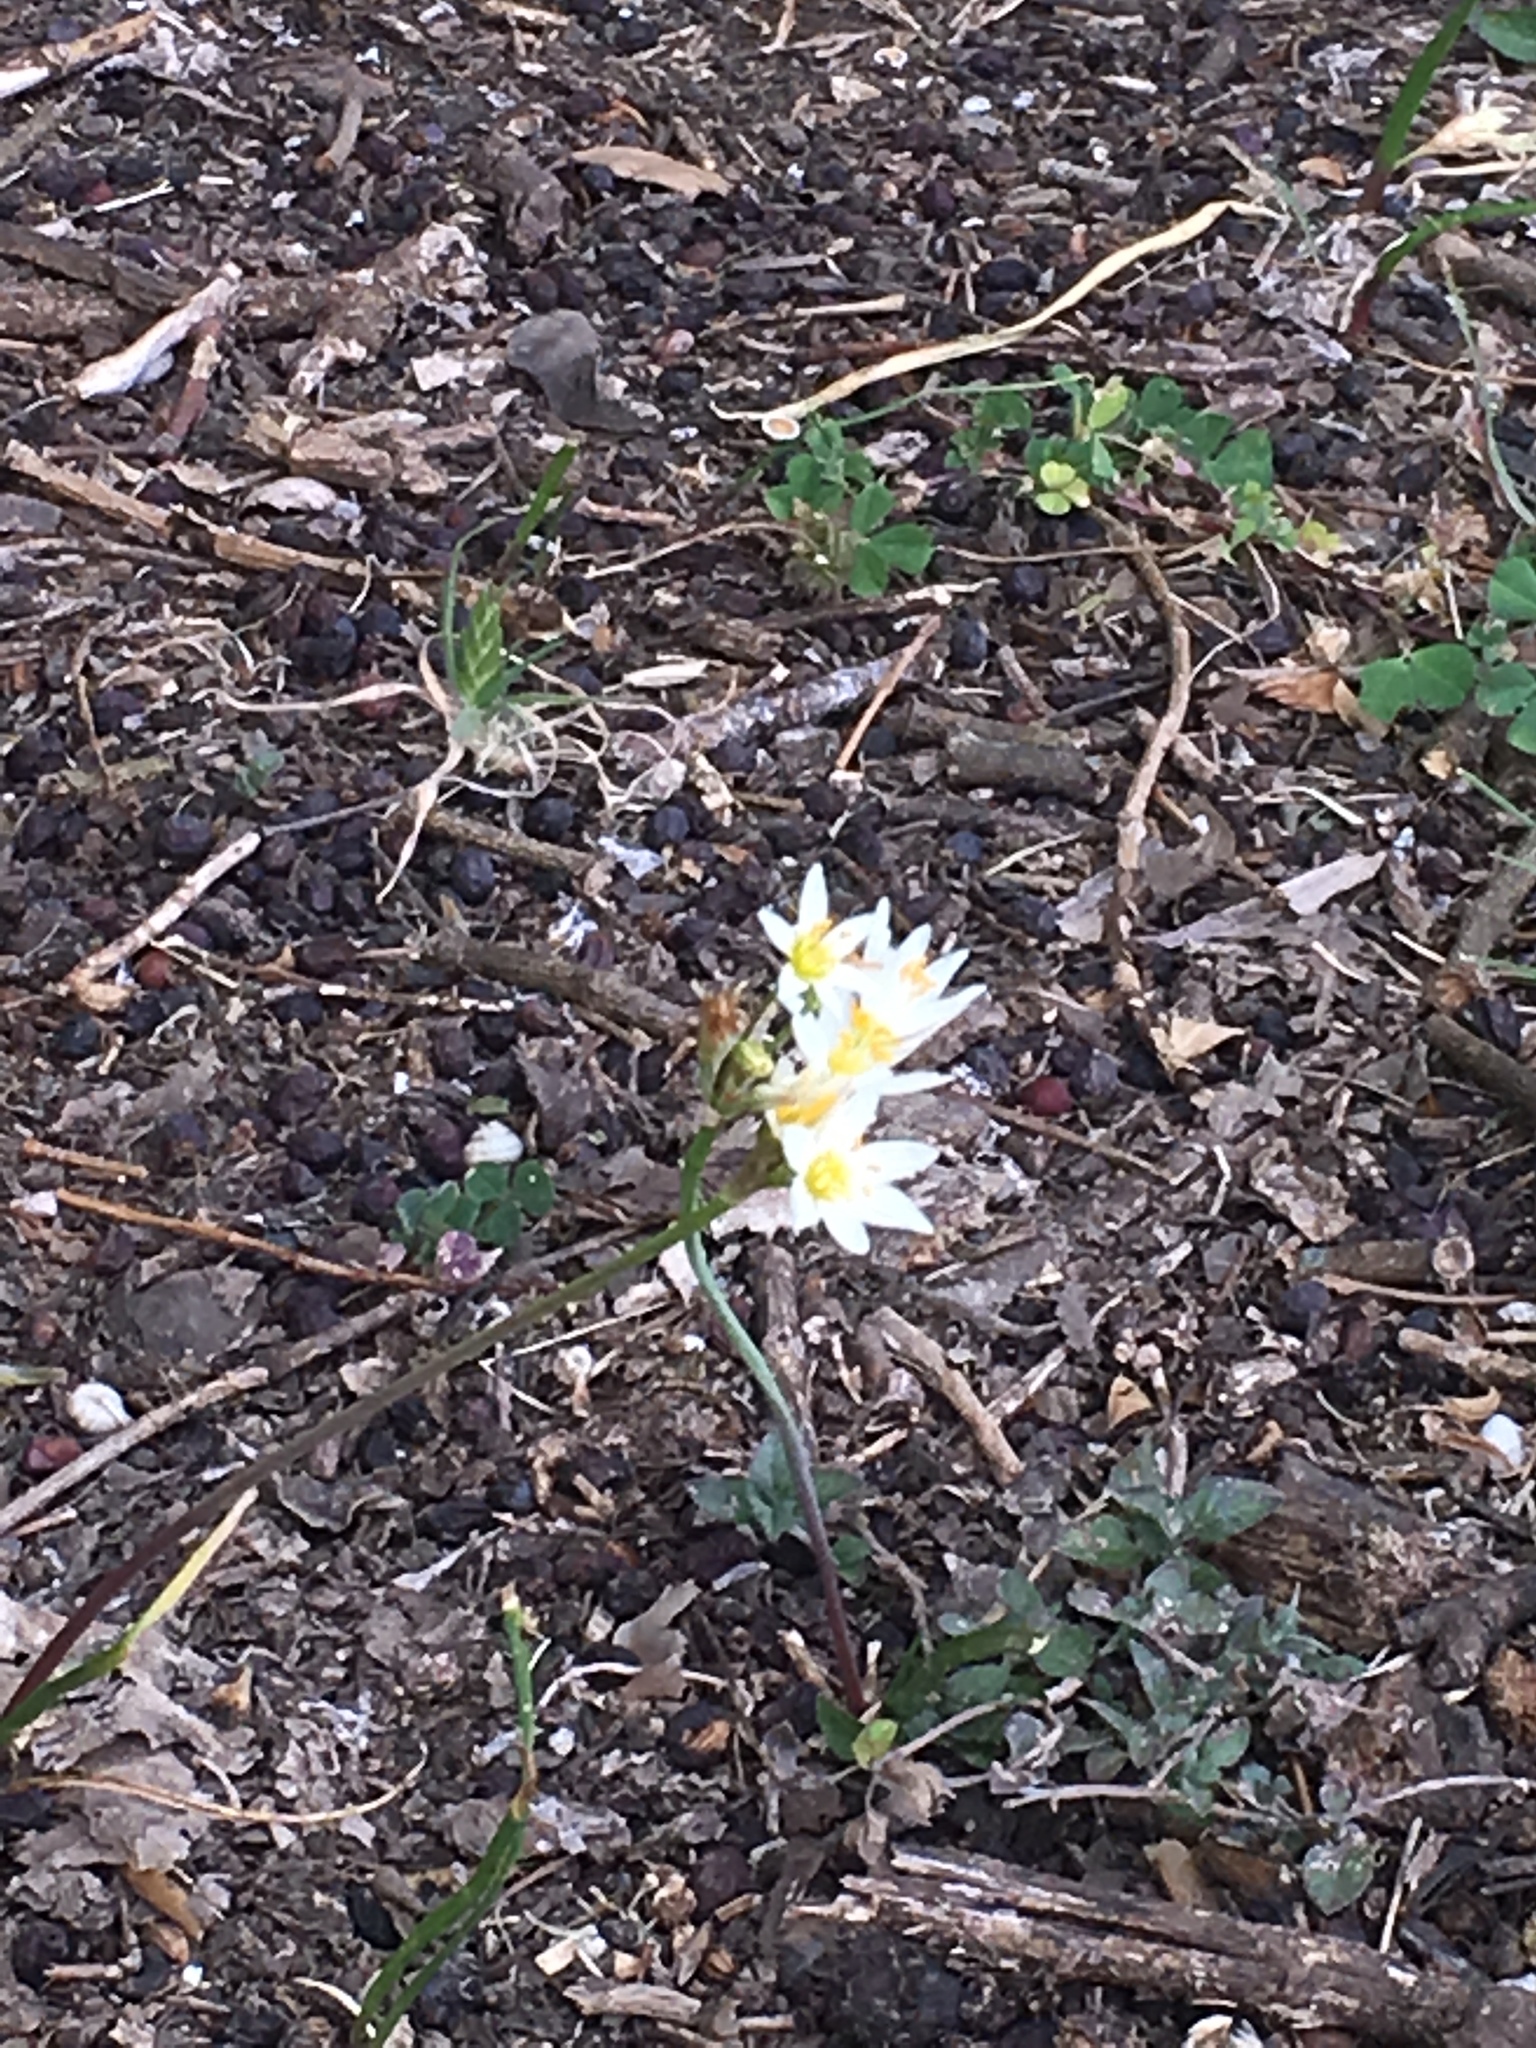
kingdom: Plantae
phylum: Tracheophyta
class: Liliopsida
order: Asparagales
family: Amaryllidaceae
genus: Nothoscordum
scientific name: Nothoscordum bivalve
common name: Crow-poison
